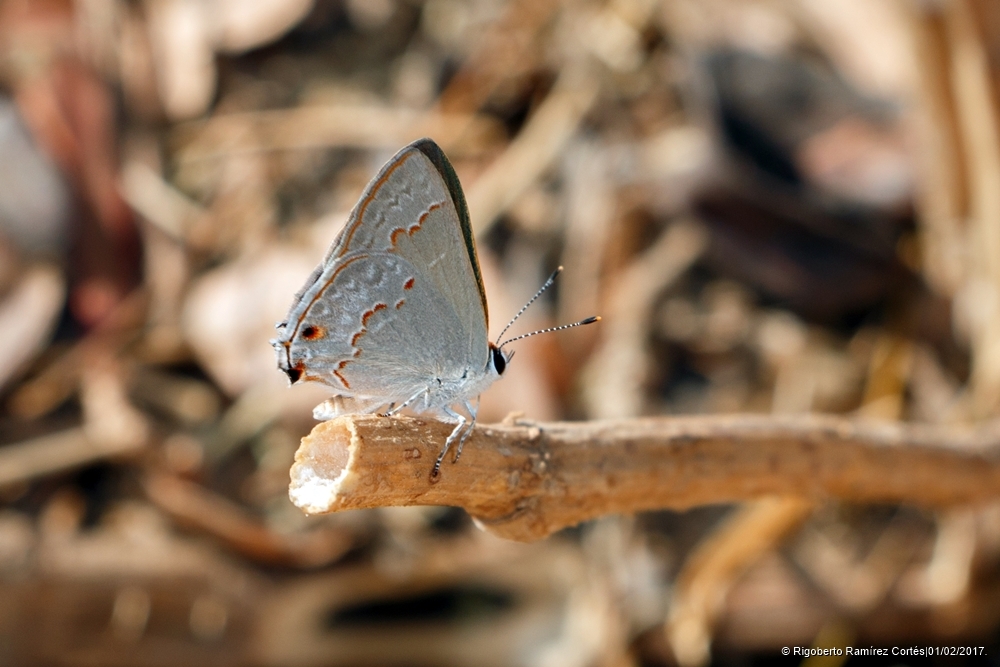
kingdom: Animalia
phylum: Arthropoda
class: Insecta
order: Lepidoptera
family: Lycaenidae
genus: Thecla
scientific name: Thecla rufofusca
